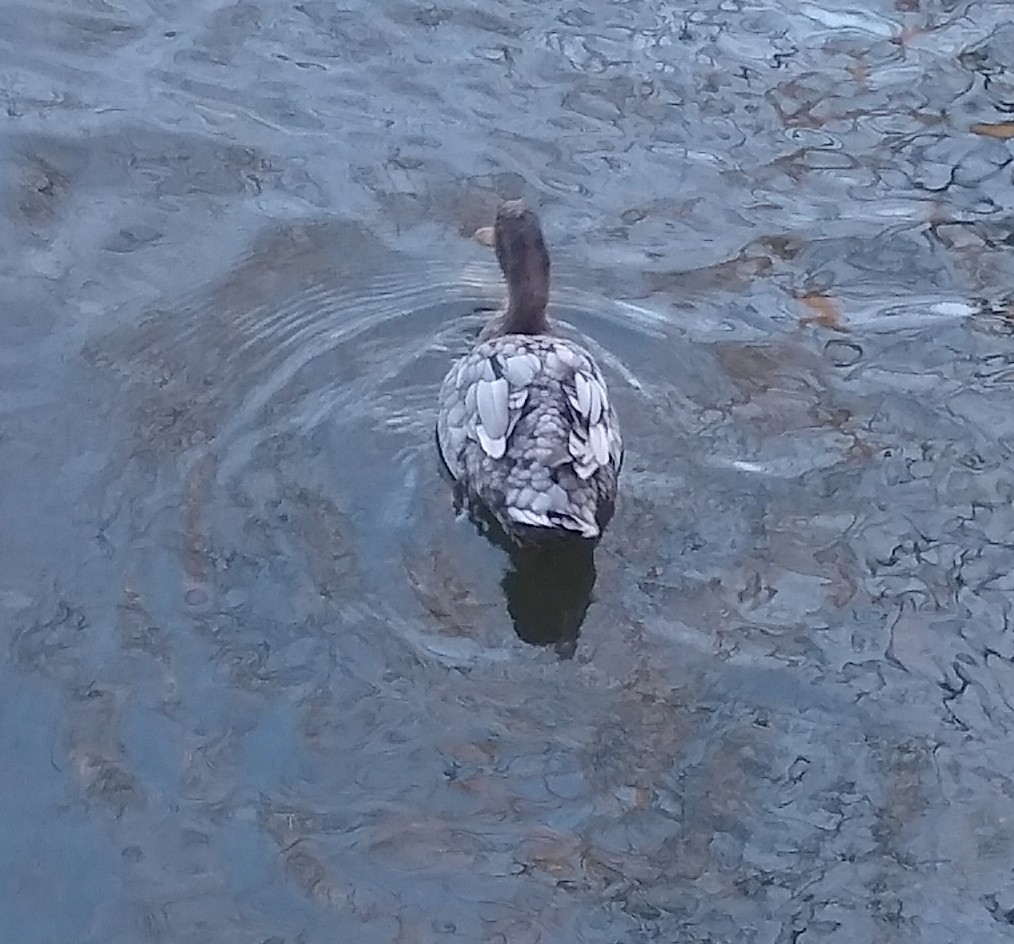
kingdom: Animalia
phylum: Chordata
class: Aves
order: Anseriformes
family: Anatidae
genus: Anas
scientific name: Anas platyrhynchos
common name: Mallard
